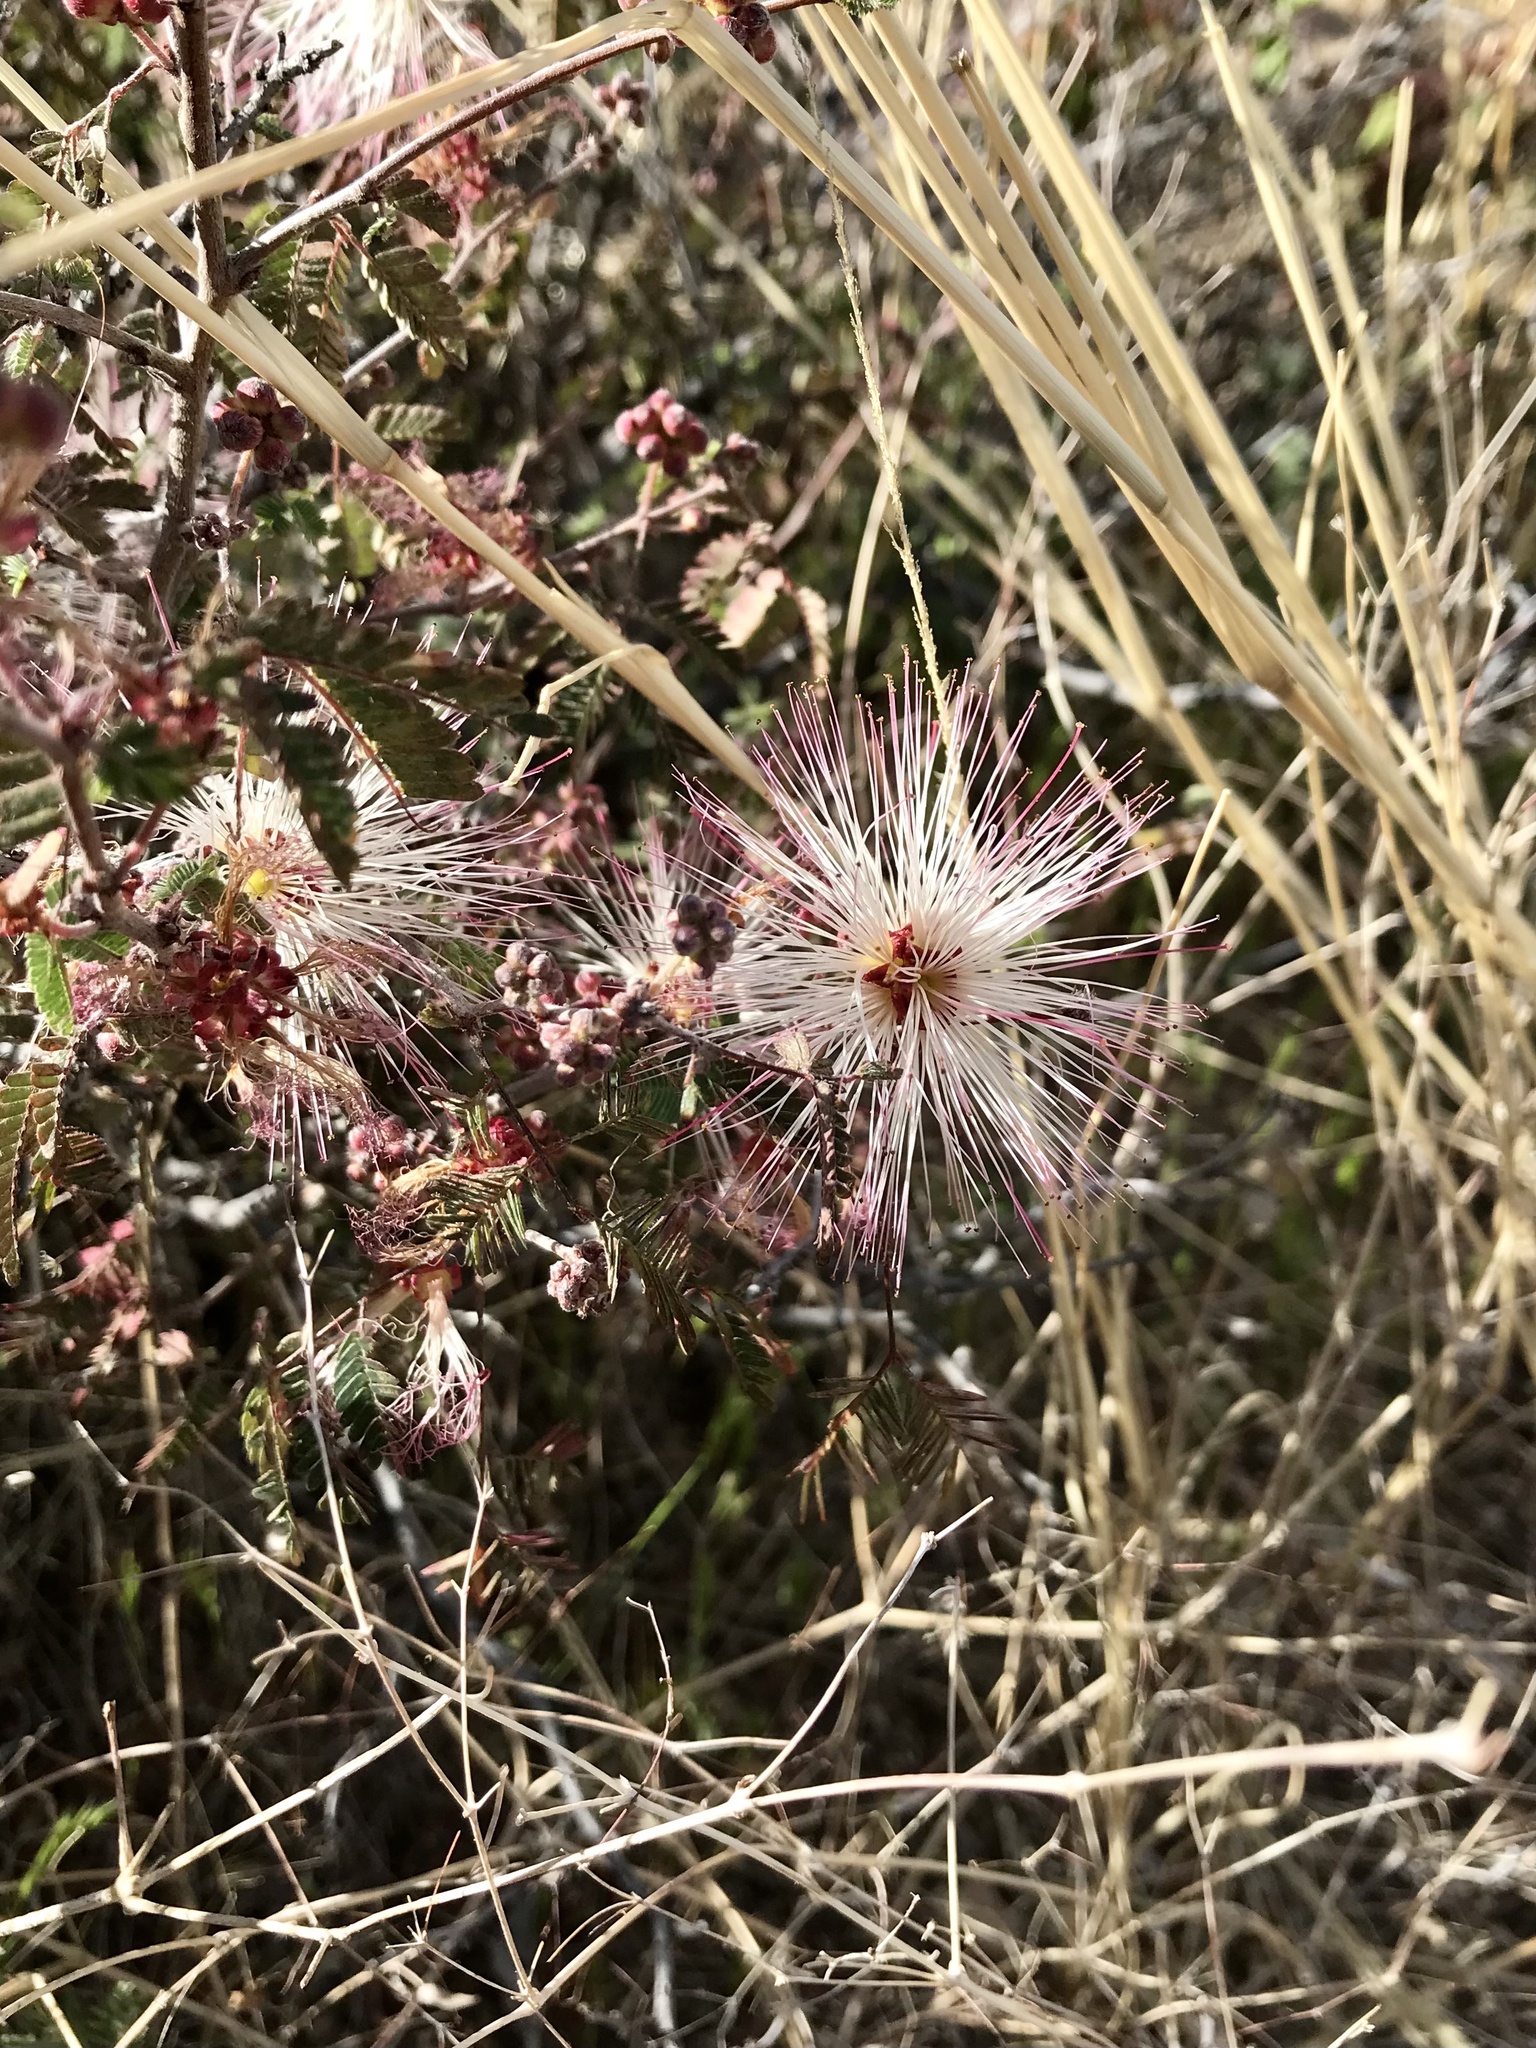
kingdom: Plantae
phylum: Tracheophyta
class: Magnoliopsida
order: Fabales
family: Fabaceae
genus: Calliandra
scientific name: Calliandra eriophylla
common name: Fairy-duster
